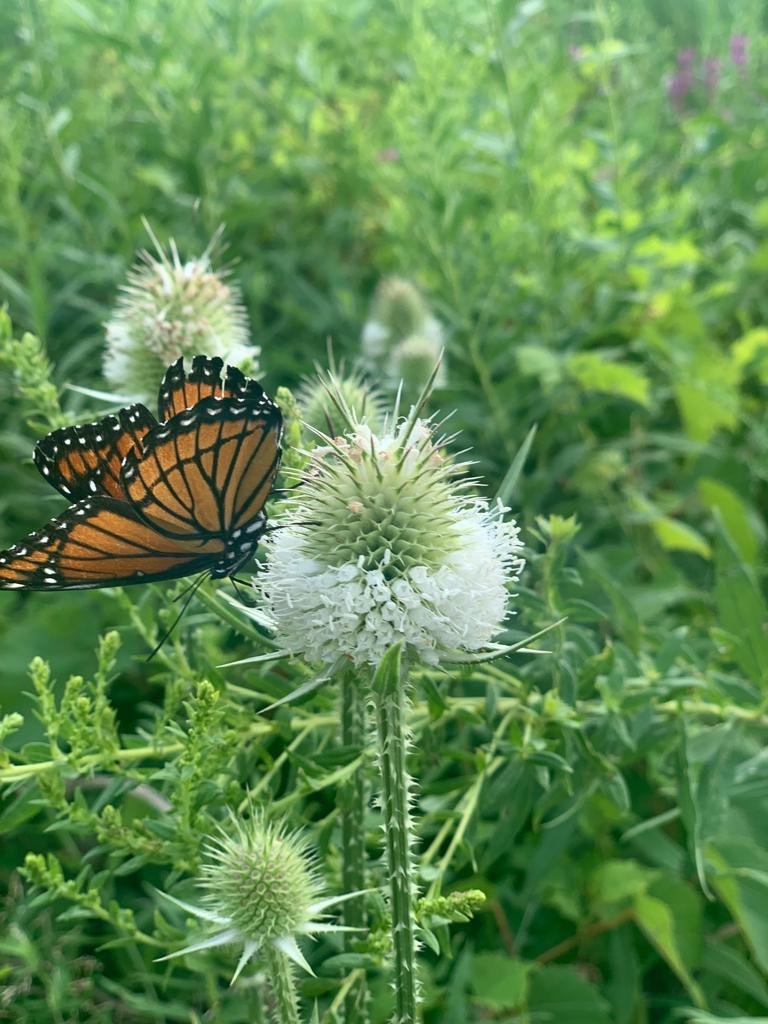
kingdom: Animalia
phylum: Arthropoda
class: Insecta
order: Lepidoptera
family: Nymphalidae
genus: Limenitis
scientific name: Limenitis archippus
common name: Viceroy
